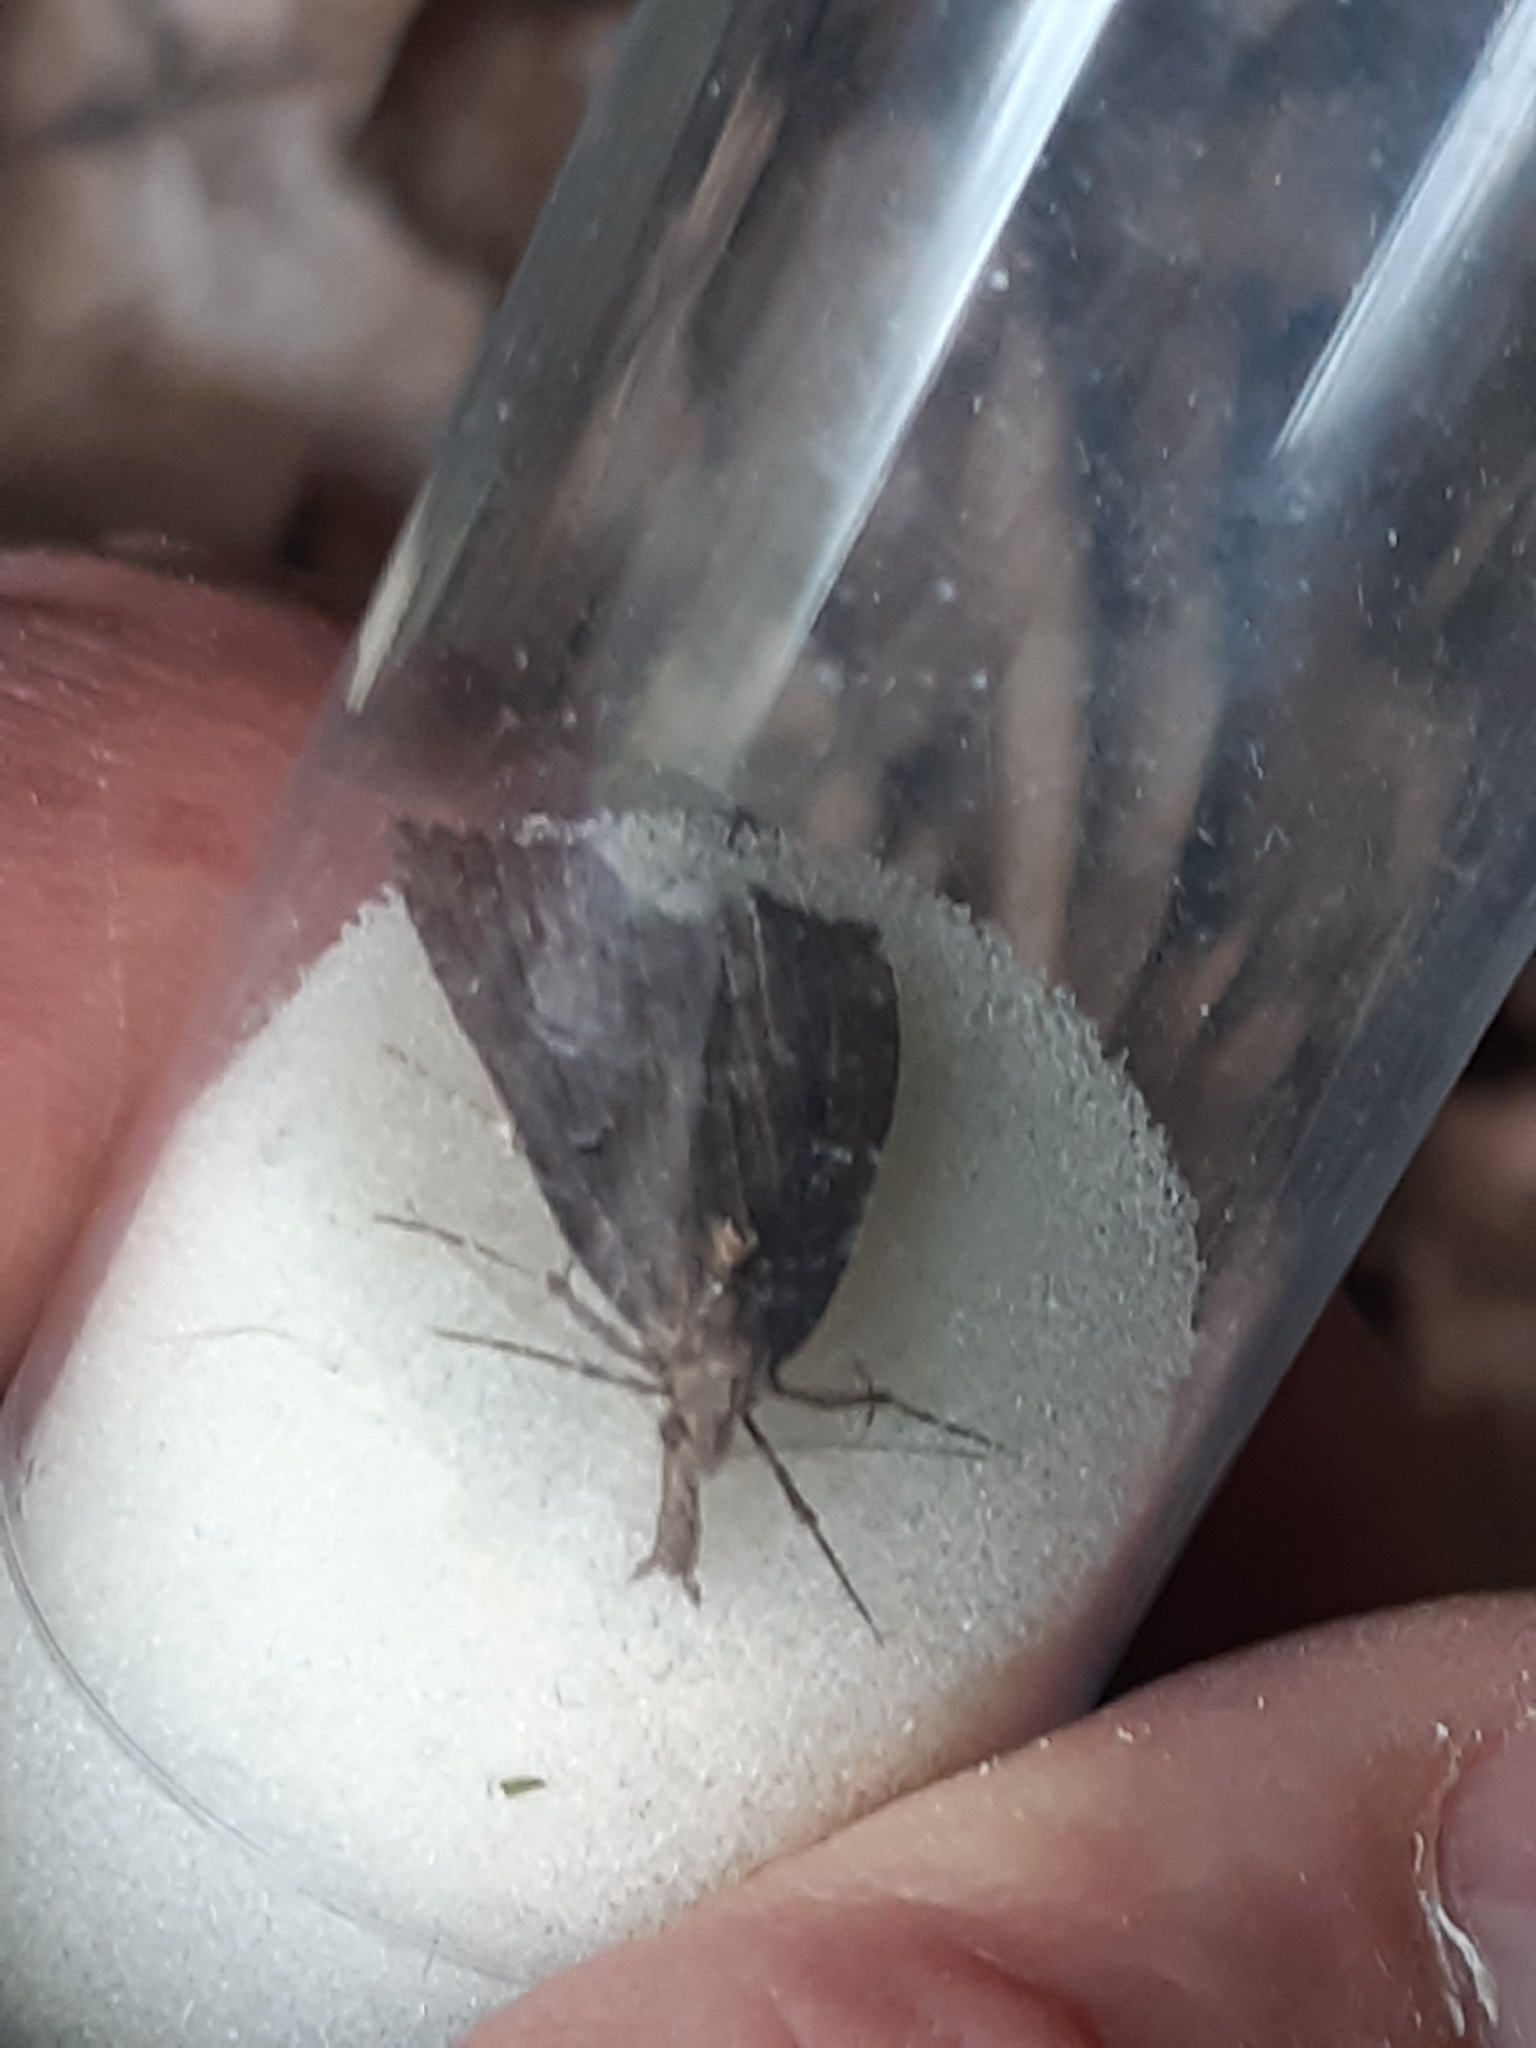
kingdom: Animalia
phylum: Arthropoda
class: Insecta
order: Lepidoptera
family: Erebidae
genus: Hypena
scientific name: Hypena rostralis
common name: Buttoned snout
